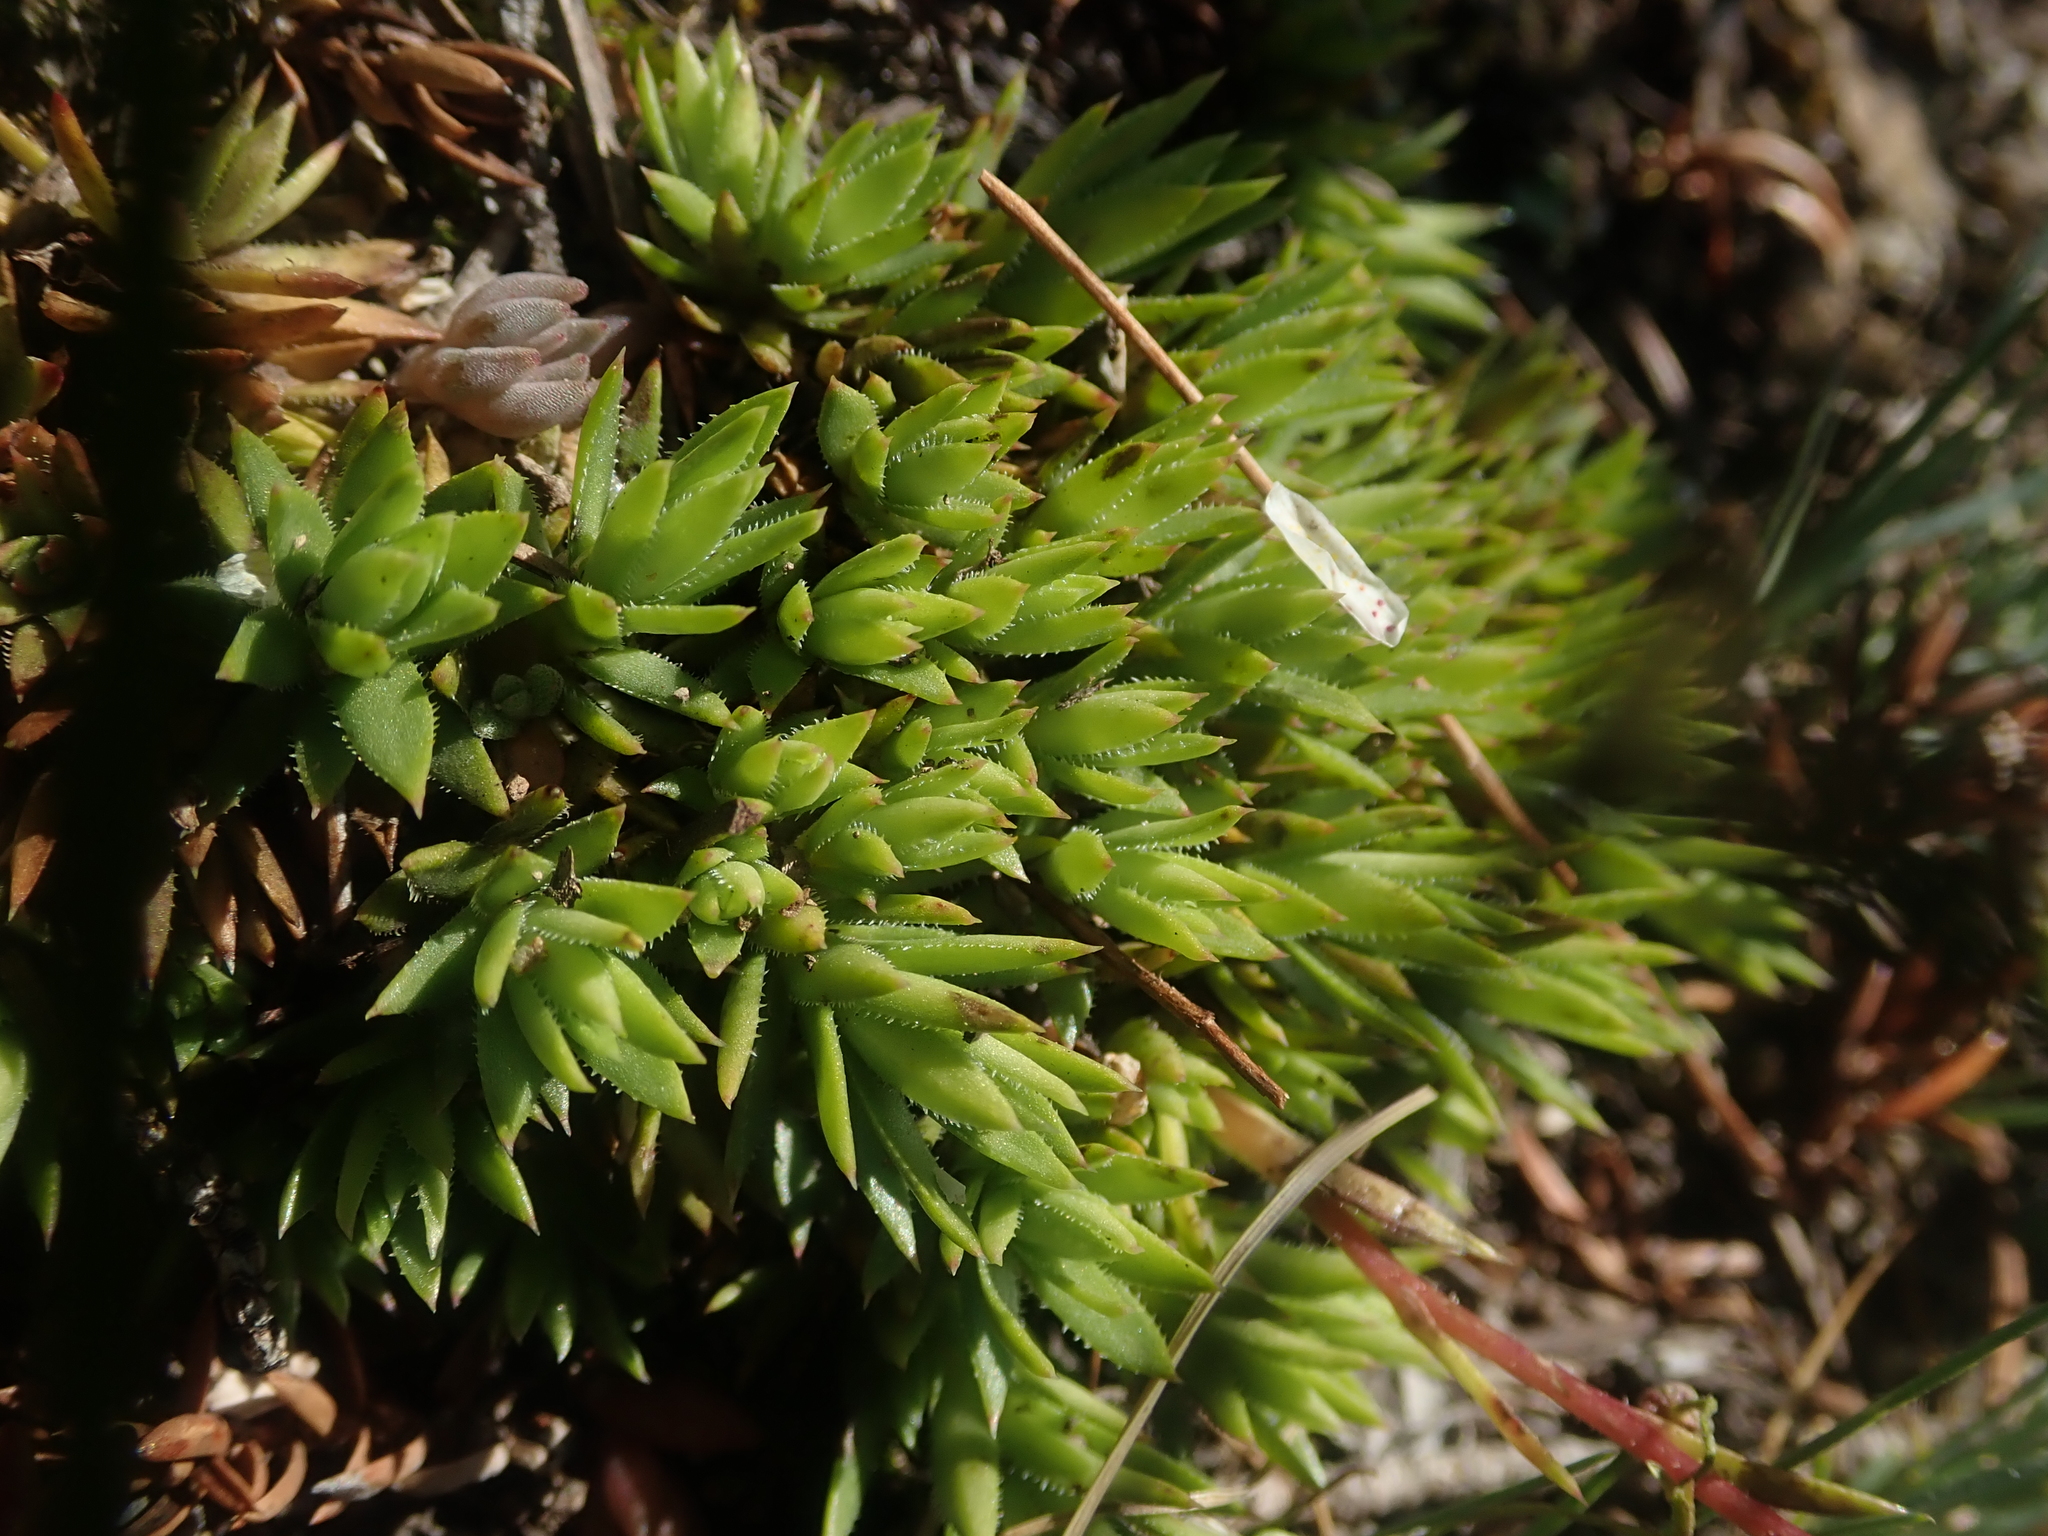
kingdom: Plantae
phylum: Tracheophyta
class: Magnoliopsida
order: Saxifragales
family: Saxifragaceae
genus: Saxifraga
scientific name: Saxifraga bronchialis
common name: Matted saxifrage
